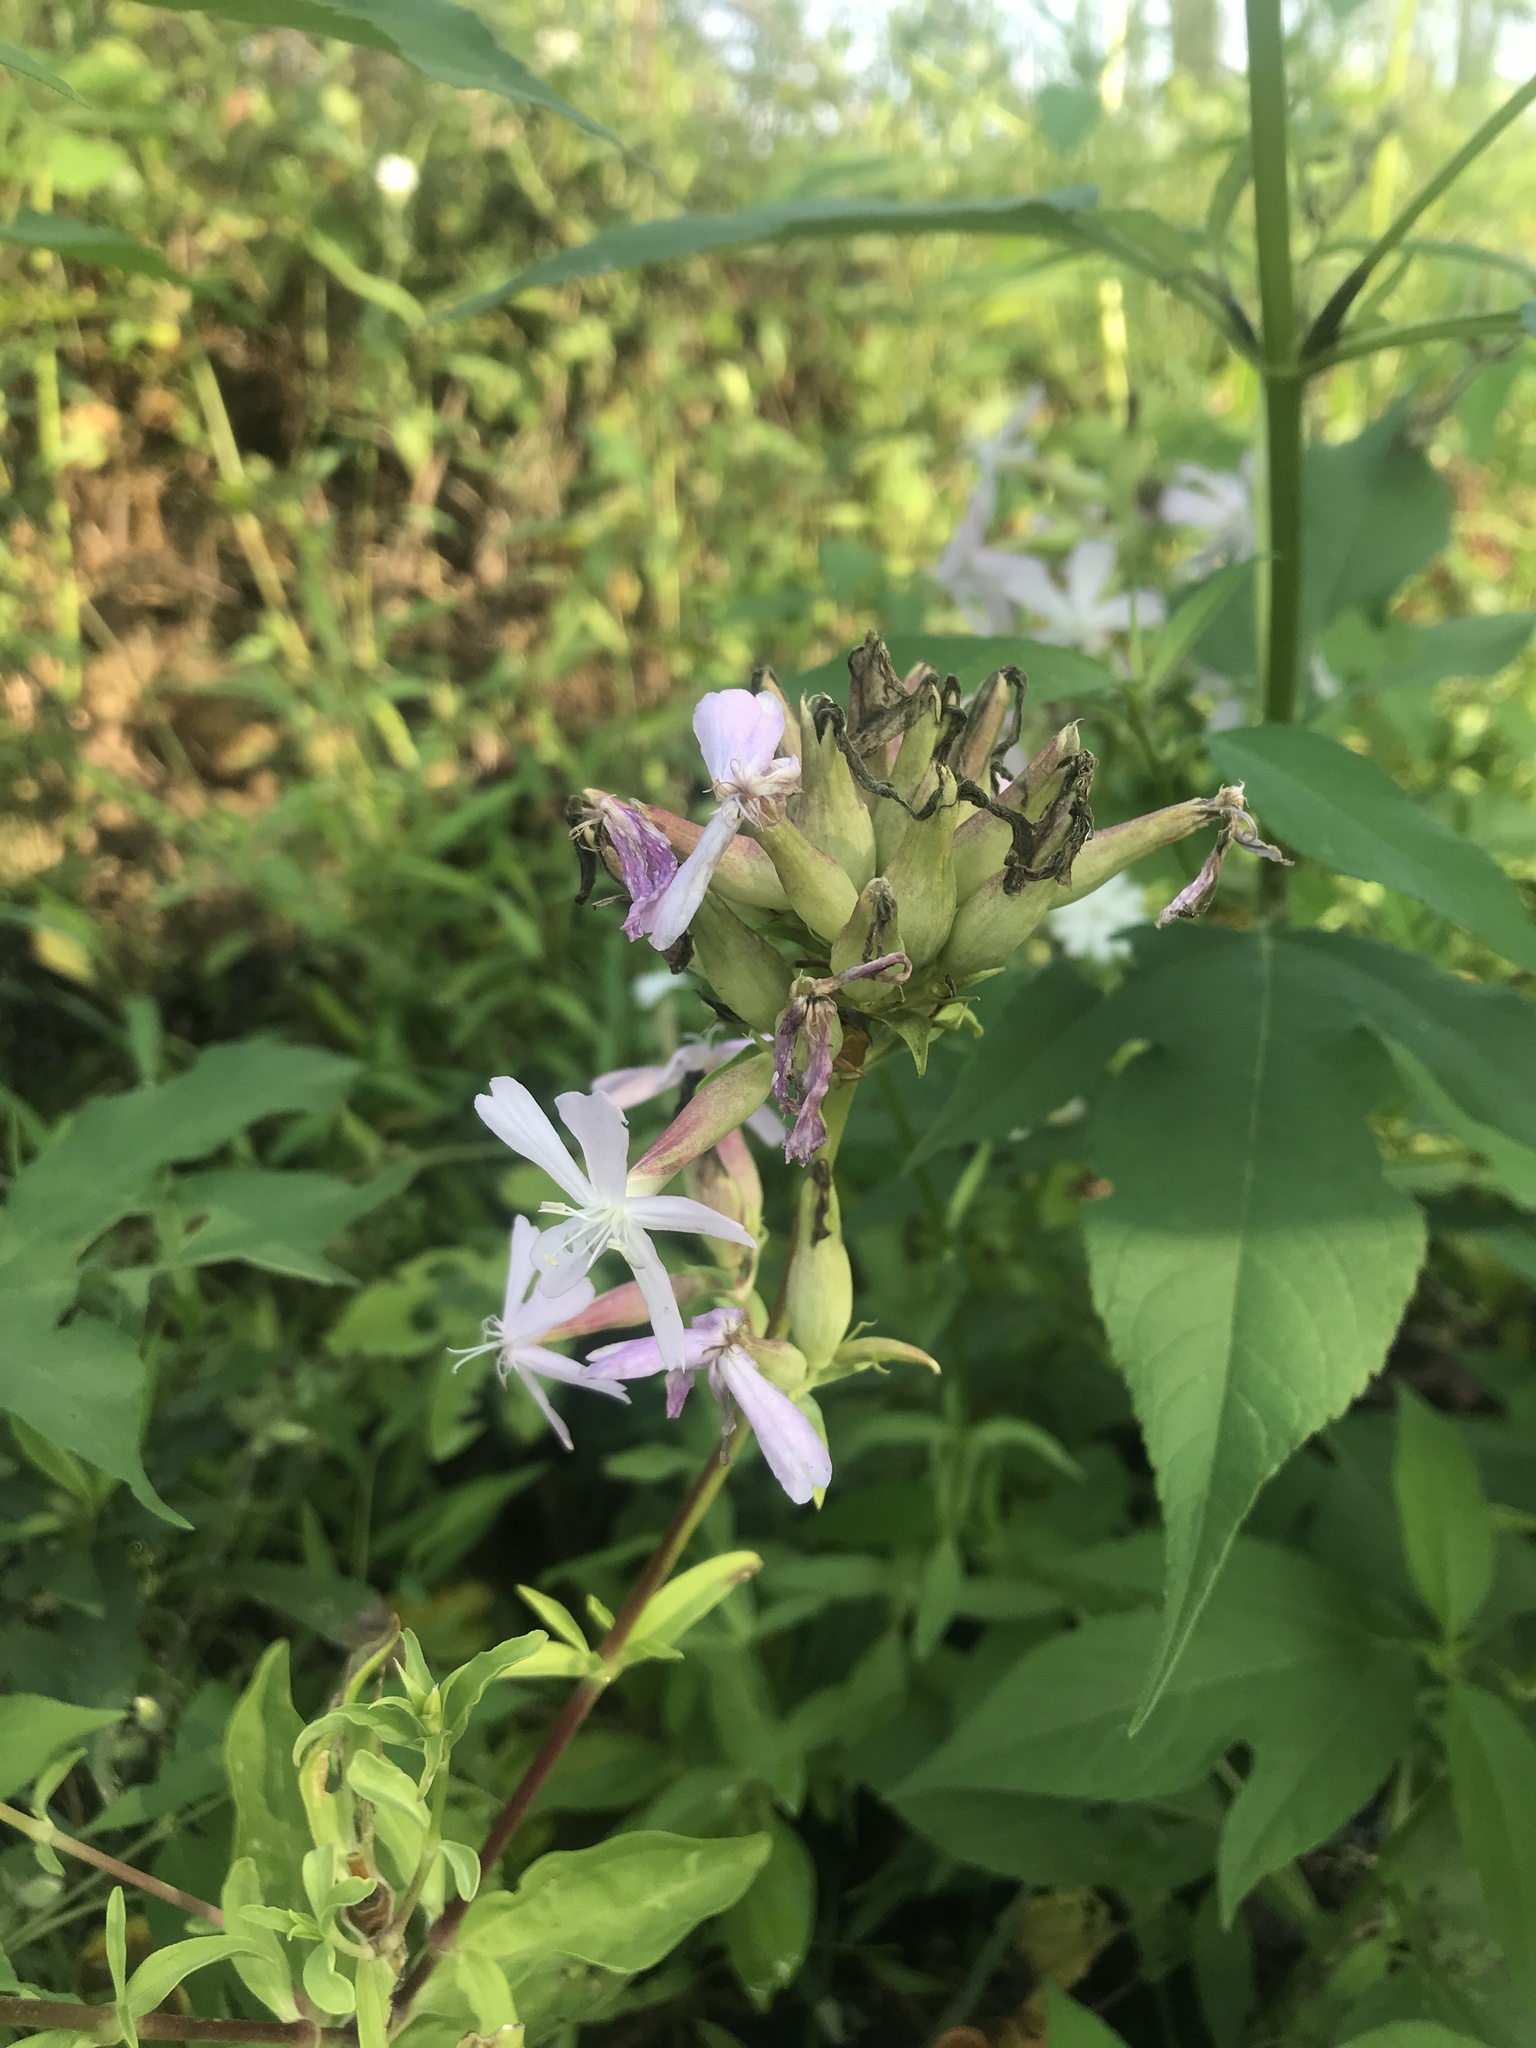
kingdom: Plantae
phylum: Tracheophyta
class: Magnoliopsida
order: Caryophyllales
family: Caryophyllaceae
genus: Saponaria
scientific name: Saponaria officinalis
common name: Soapwort
